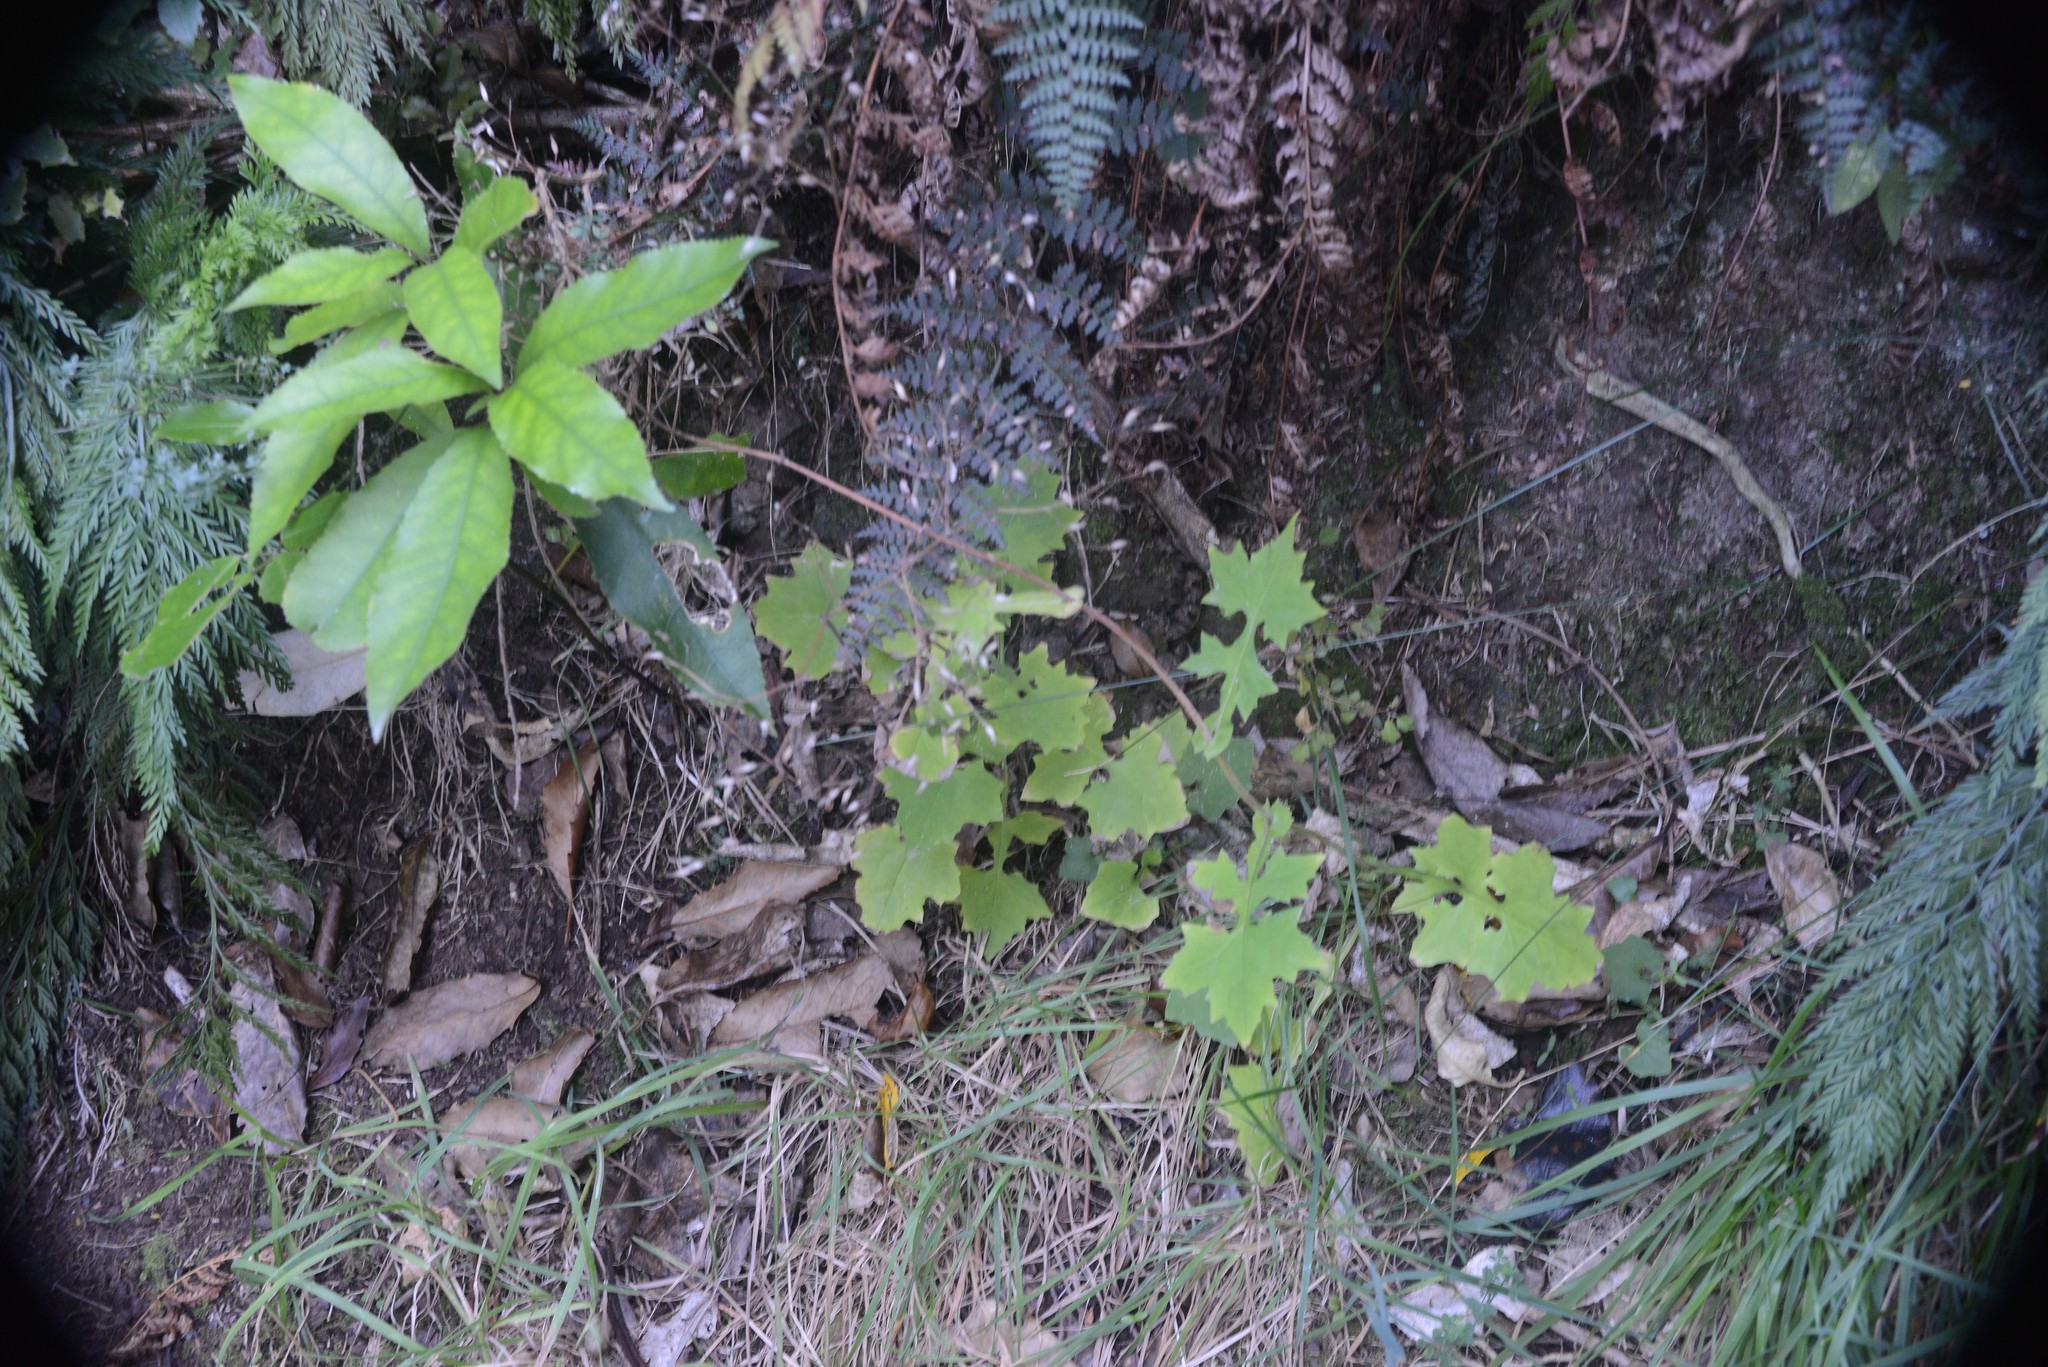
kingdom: Plantae
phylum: Tracheophyta
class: Magnoliopsida
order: Asterales
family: Asteraceae
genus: Mycelis
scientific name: Mycelis muralis
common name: Wall lettuce
